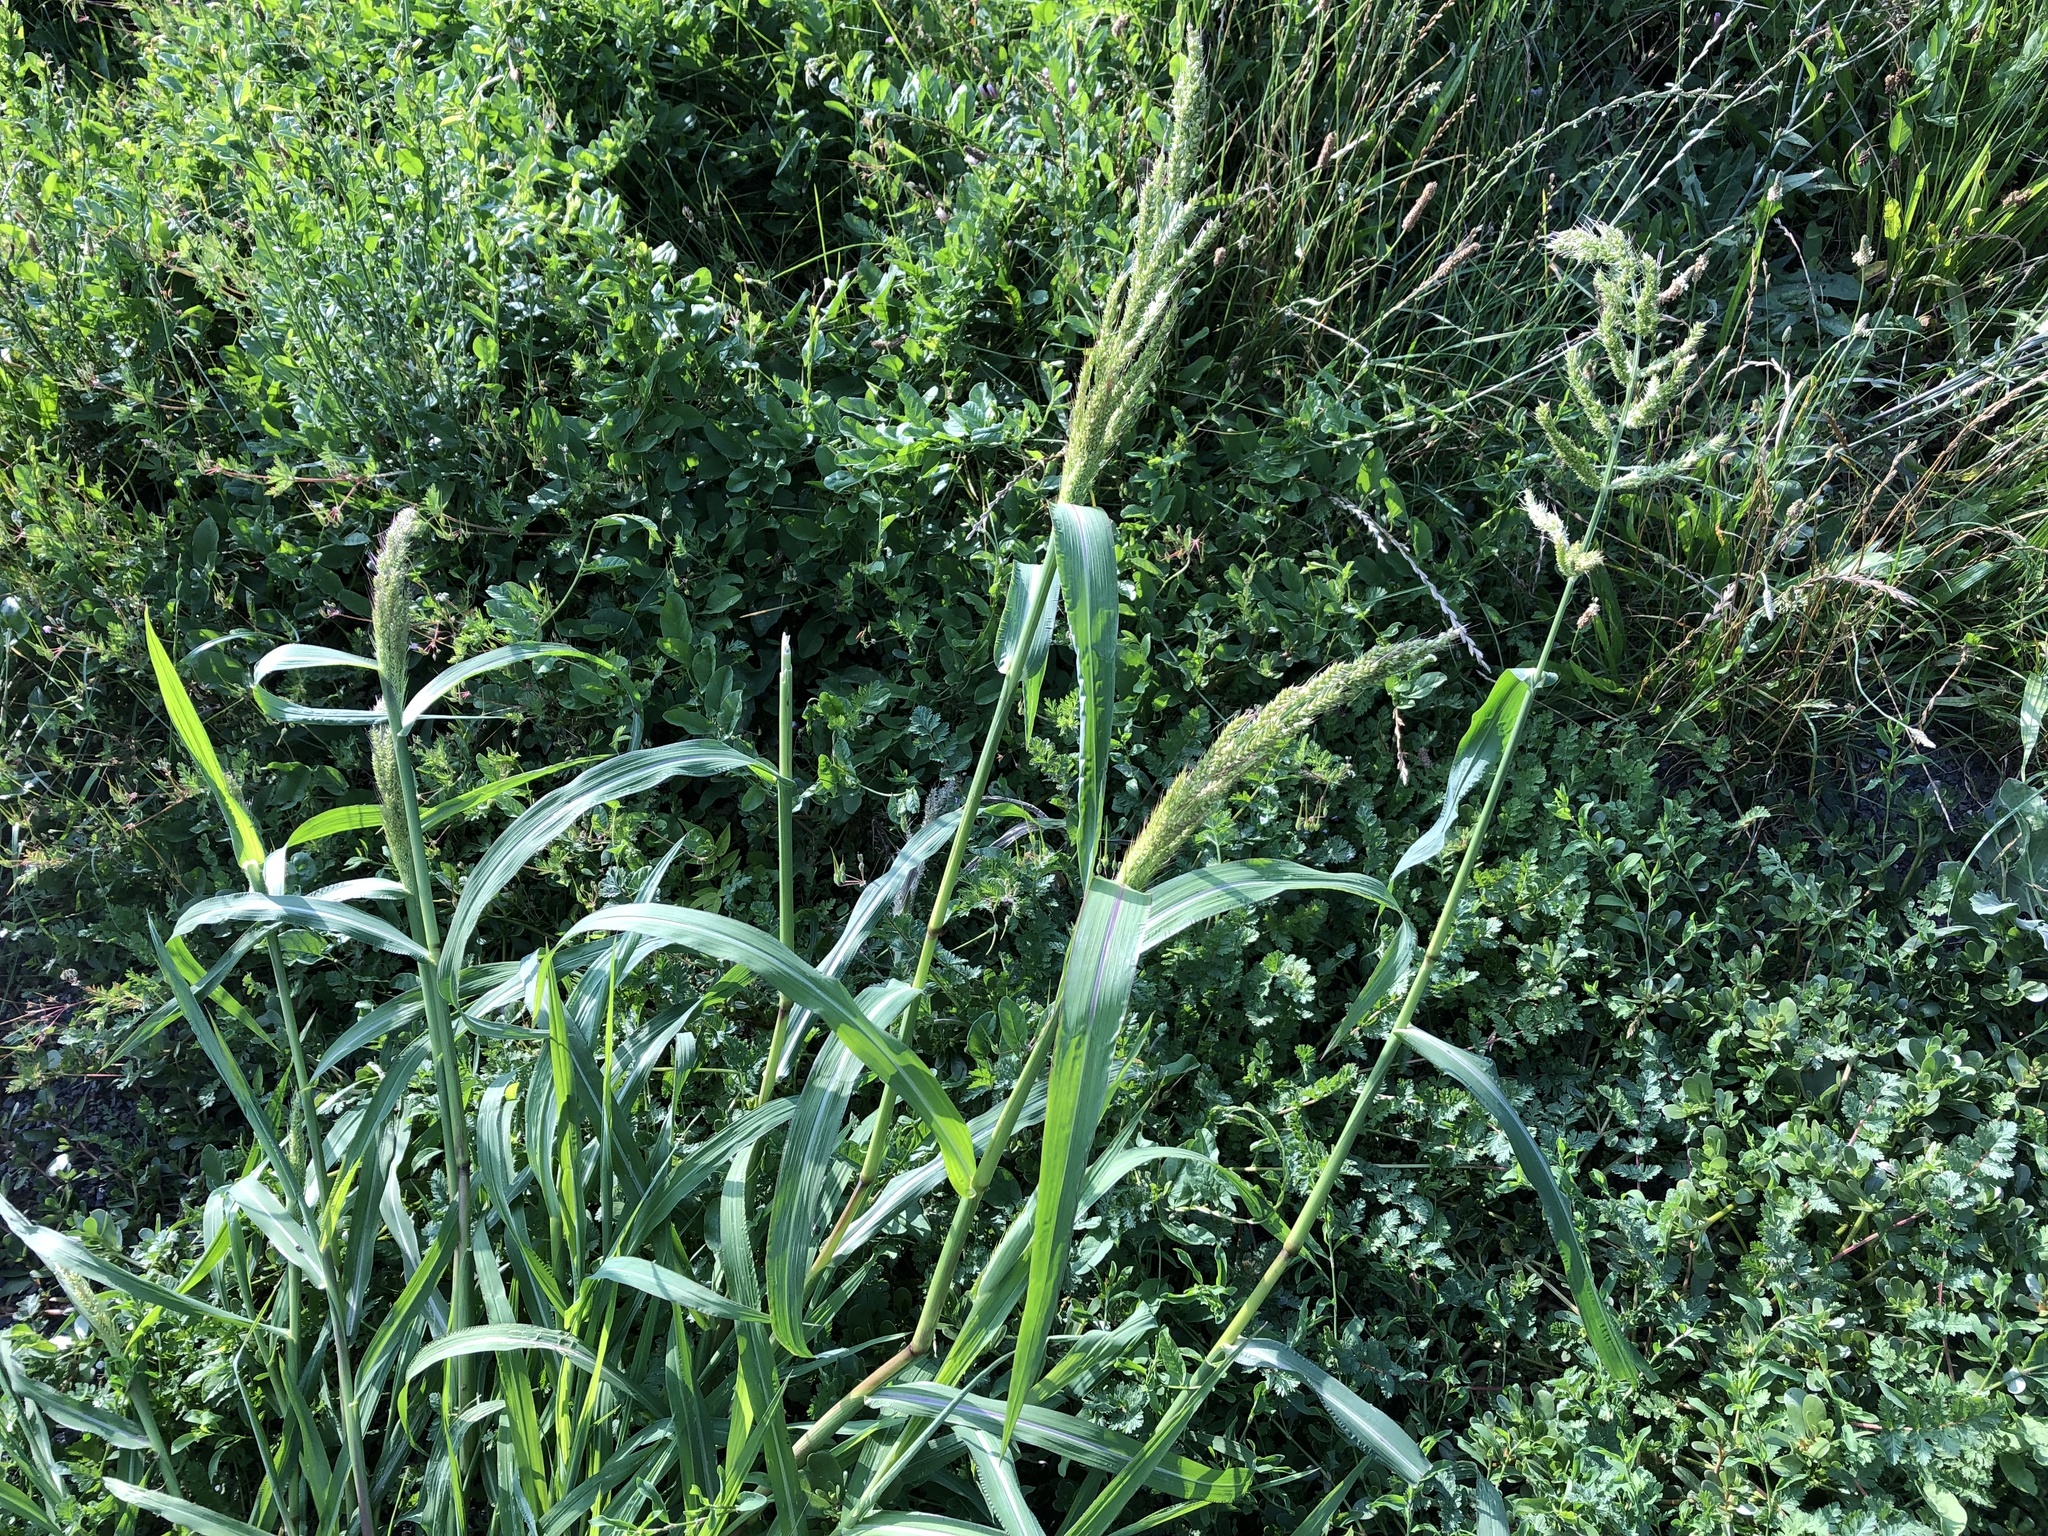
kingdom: Plantae
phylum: Tracheophyta
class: Liliopsida
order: Poales
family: Poaceae
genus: Echinochloa
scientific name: Echinochloa crus-galli
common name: Cockspur
